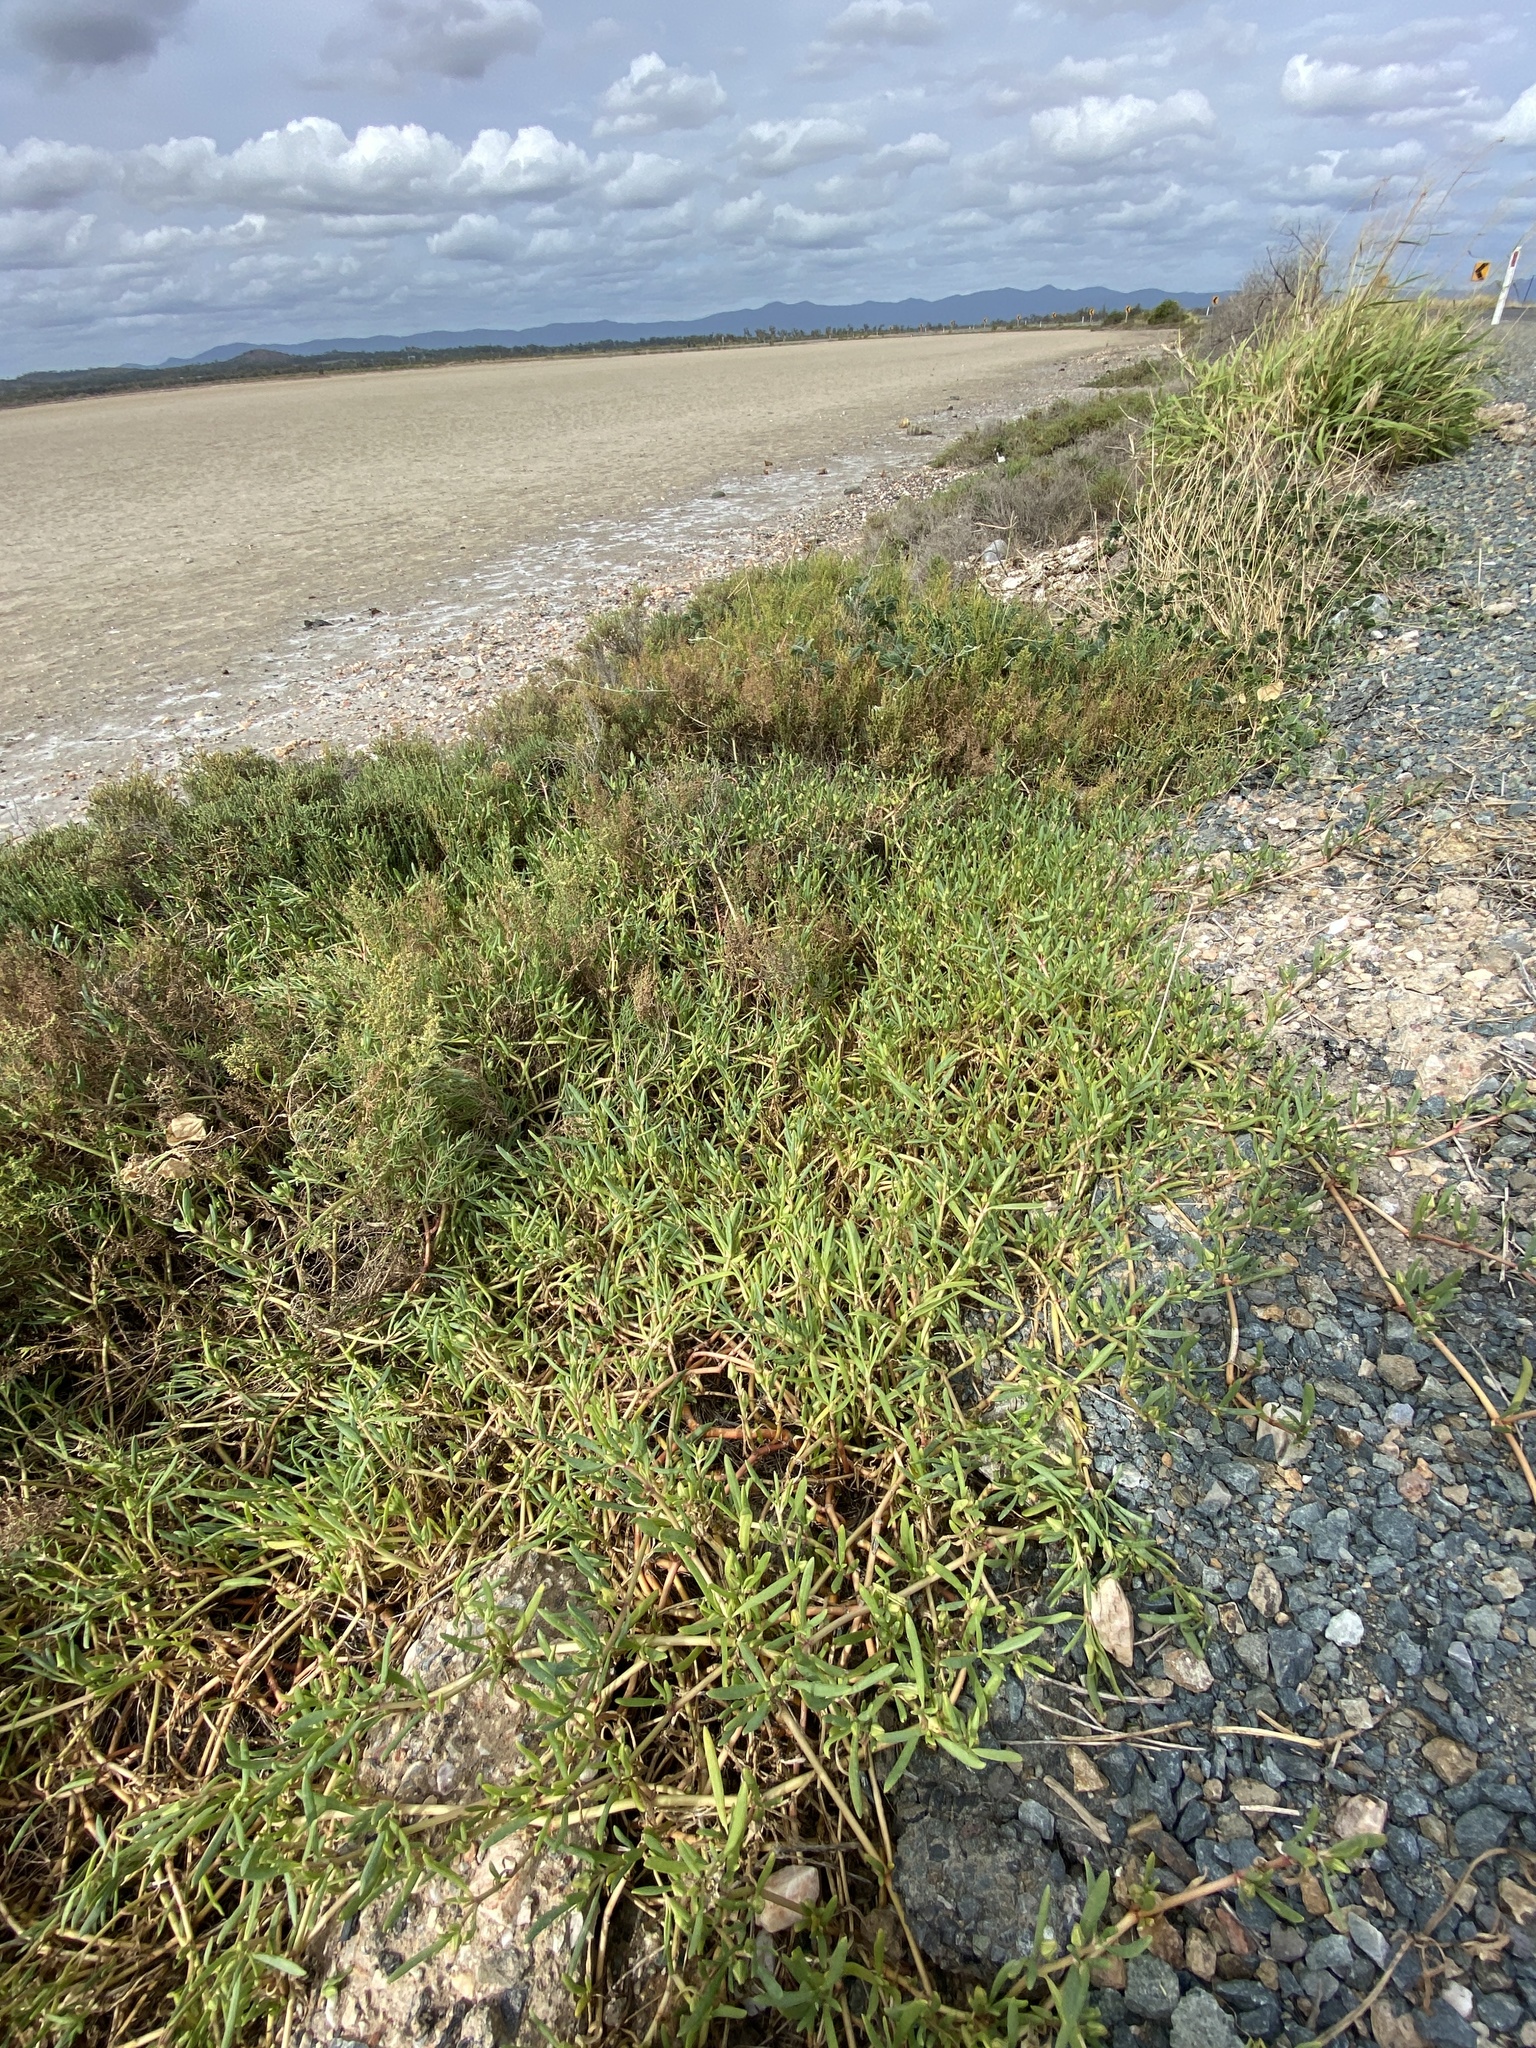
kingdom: Plantae
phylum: Tracheophyta
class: Magnoliopsida
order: Caryophyllales
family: Aizoaceae
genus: Sesuvium
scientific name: Sesuvium portulacastrum
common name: Sea-purslane
